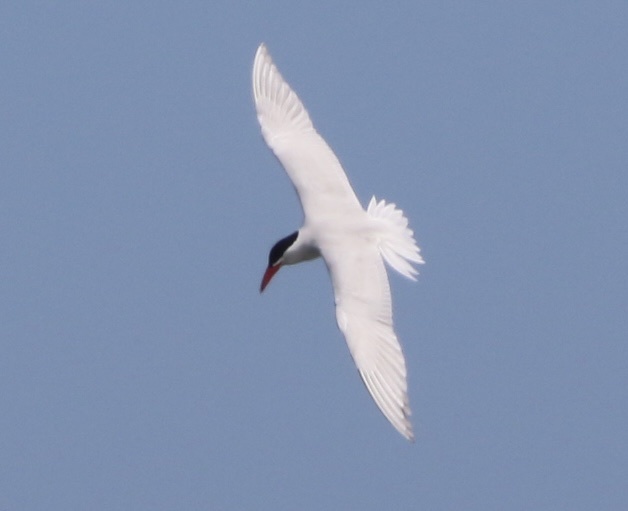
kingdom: Animalia
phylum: Chordata
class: Aves
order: Charadriiformes
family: Laridae
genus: Hydroprogne
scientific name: Hydroprogne caspia
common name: Caspian tern
